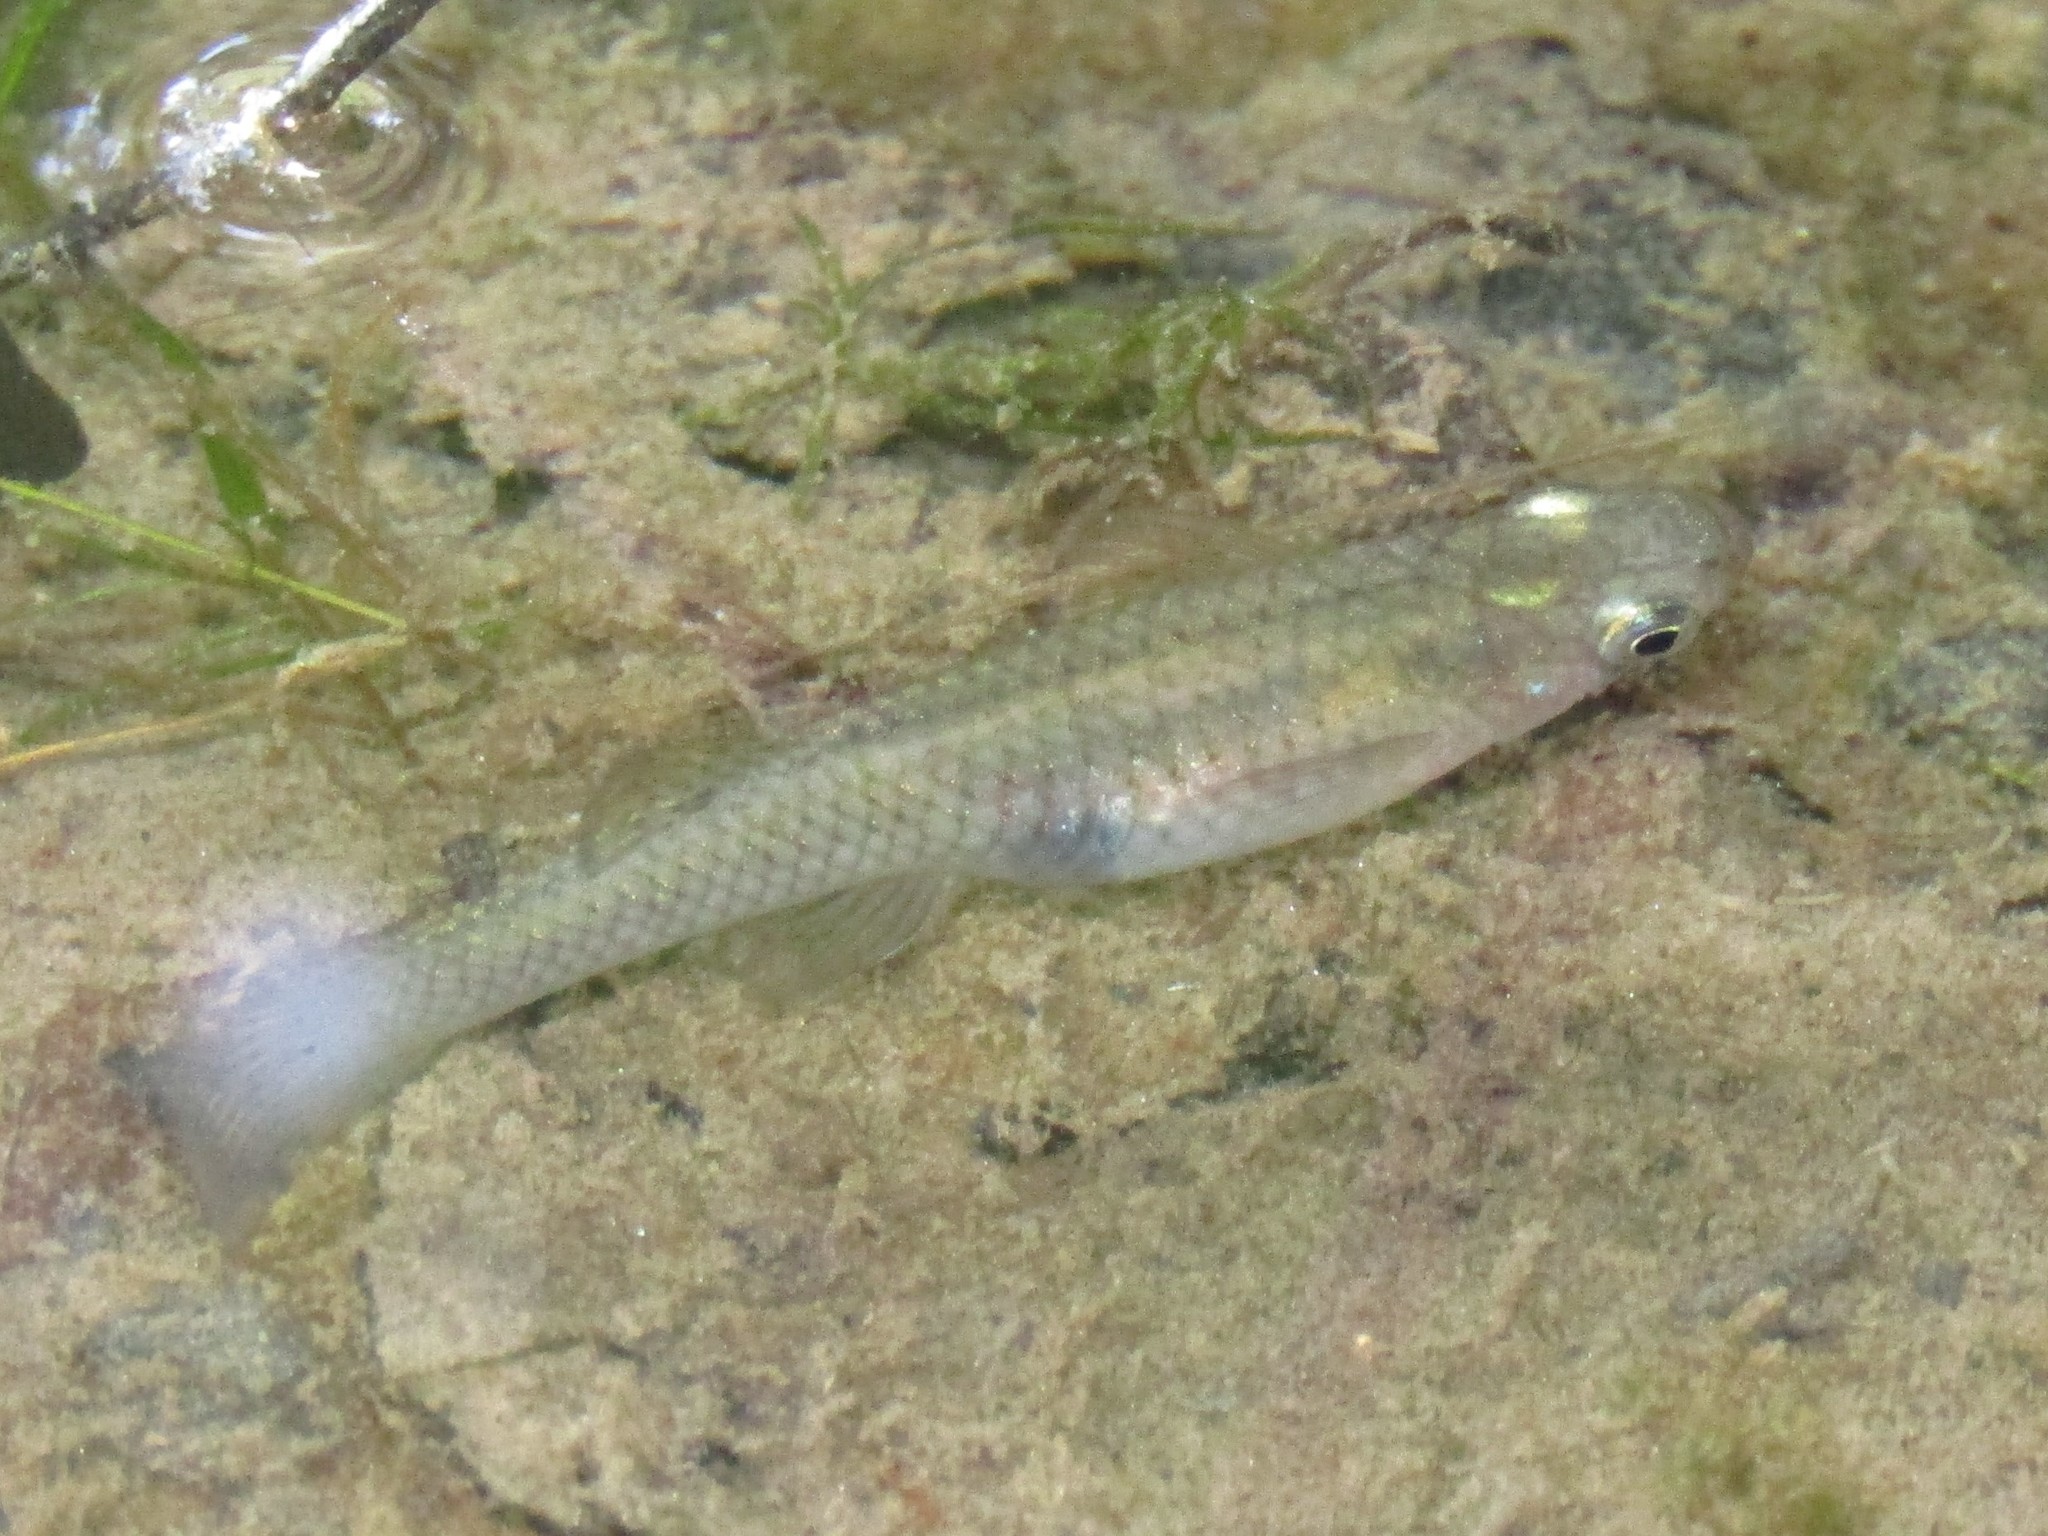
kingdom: Animalia
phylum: Chordata
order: Cyprinodontiformes
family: Poeciliidae
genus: Gambusia
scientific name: Gambusia holbrooki
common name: Eastern mosquitofish
